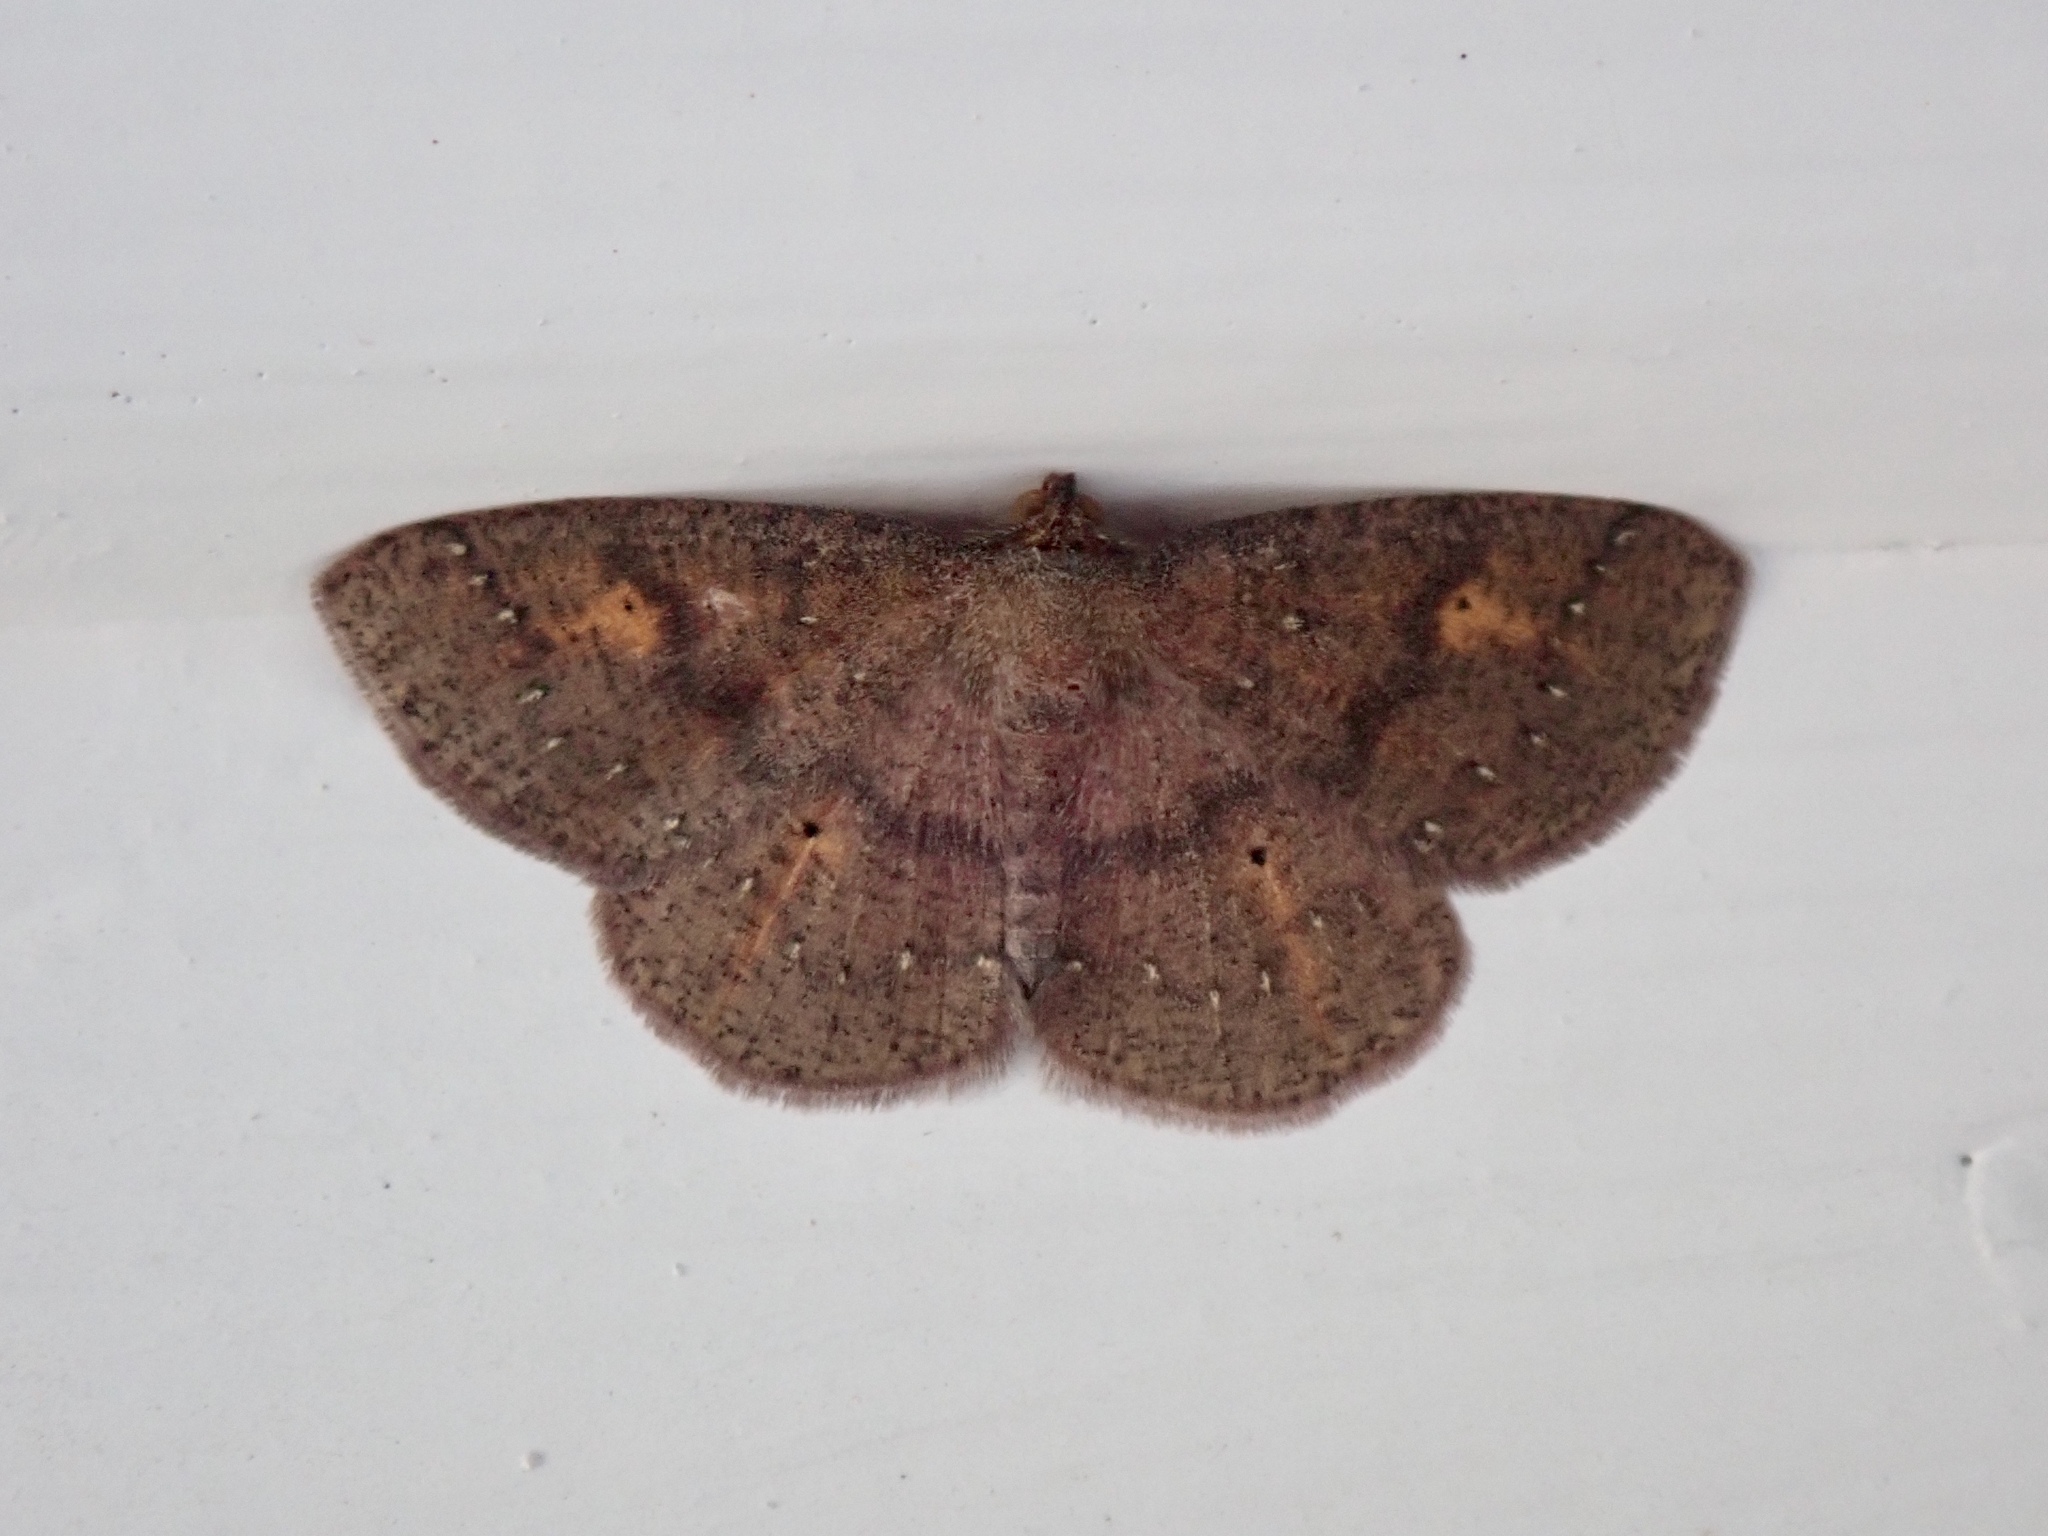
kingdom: Animalia
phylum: Arthropoda
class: Insecta
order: Lepidoptera
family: Geometridae
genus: Ilexia
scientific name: Ilexia intractata
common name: Black-dotted ruddy moth
